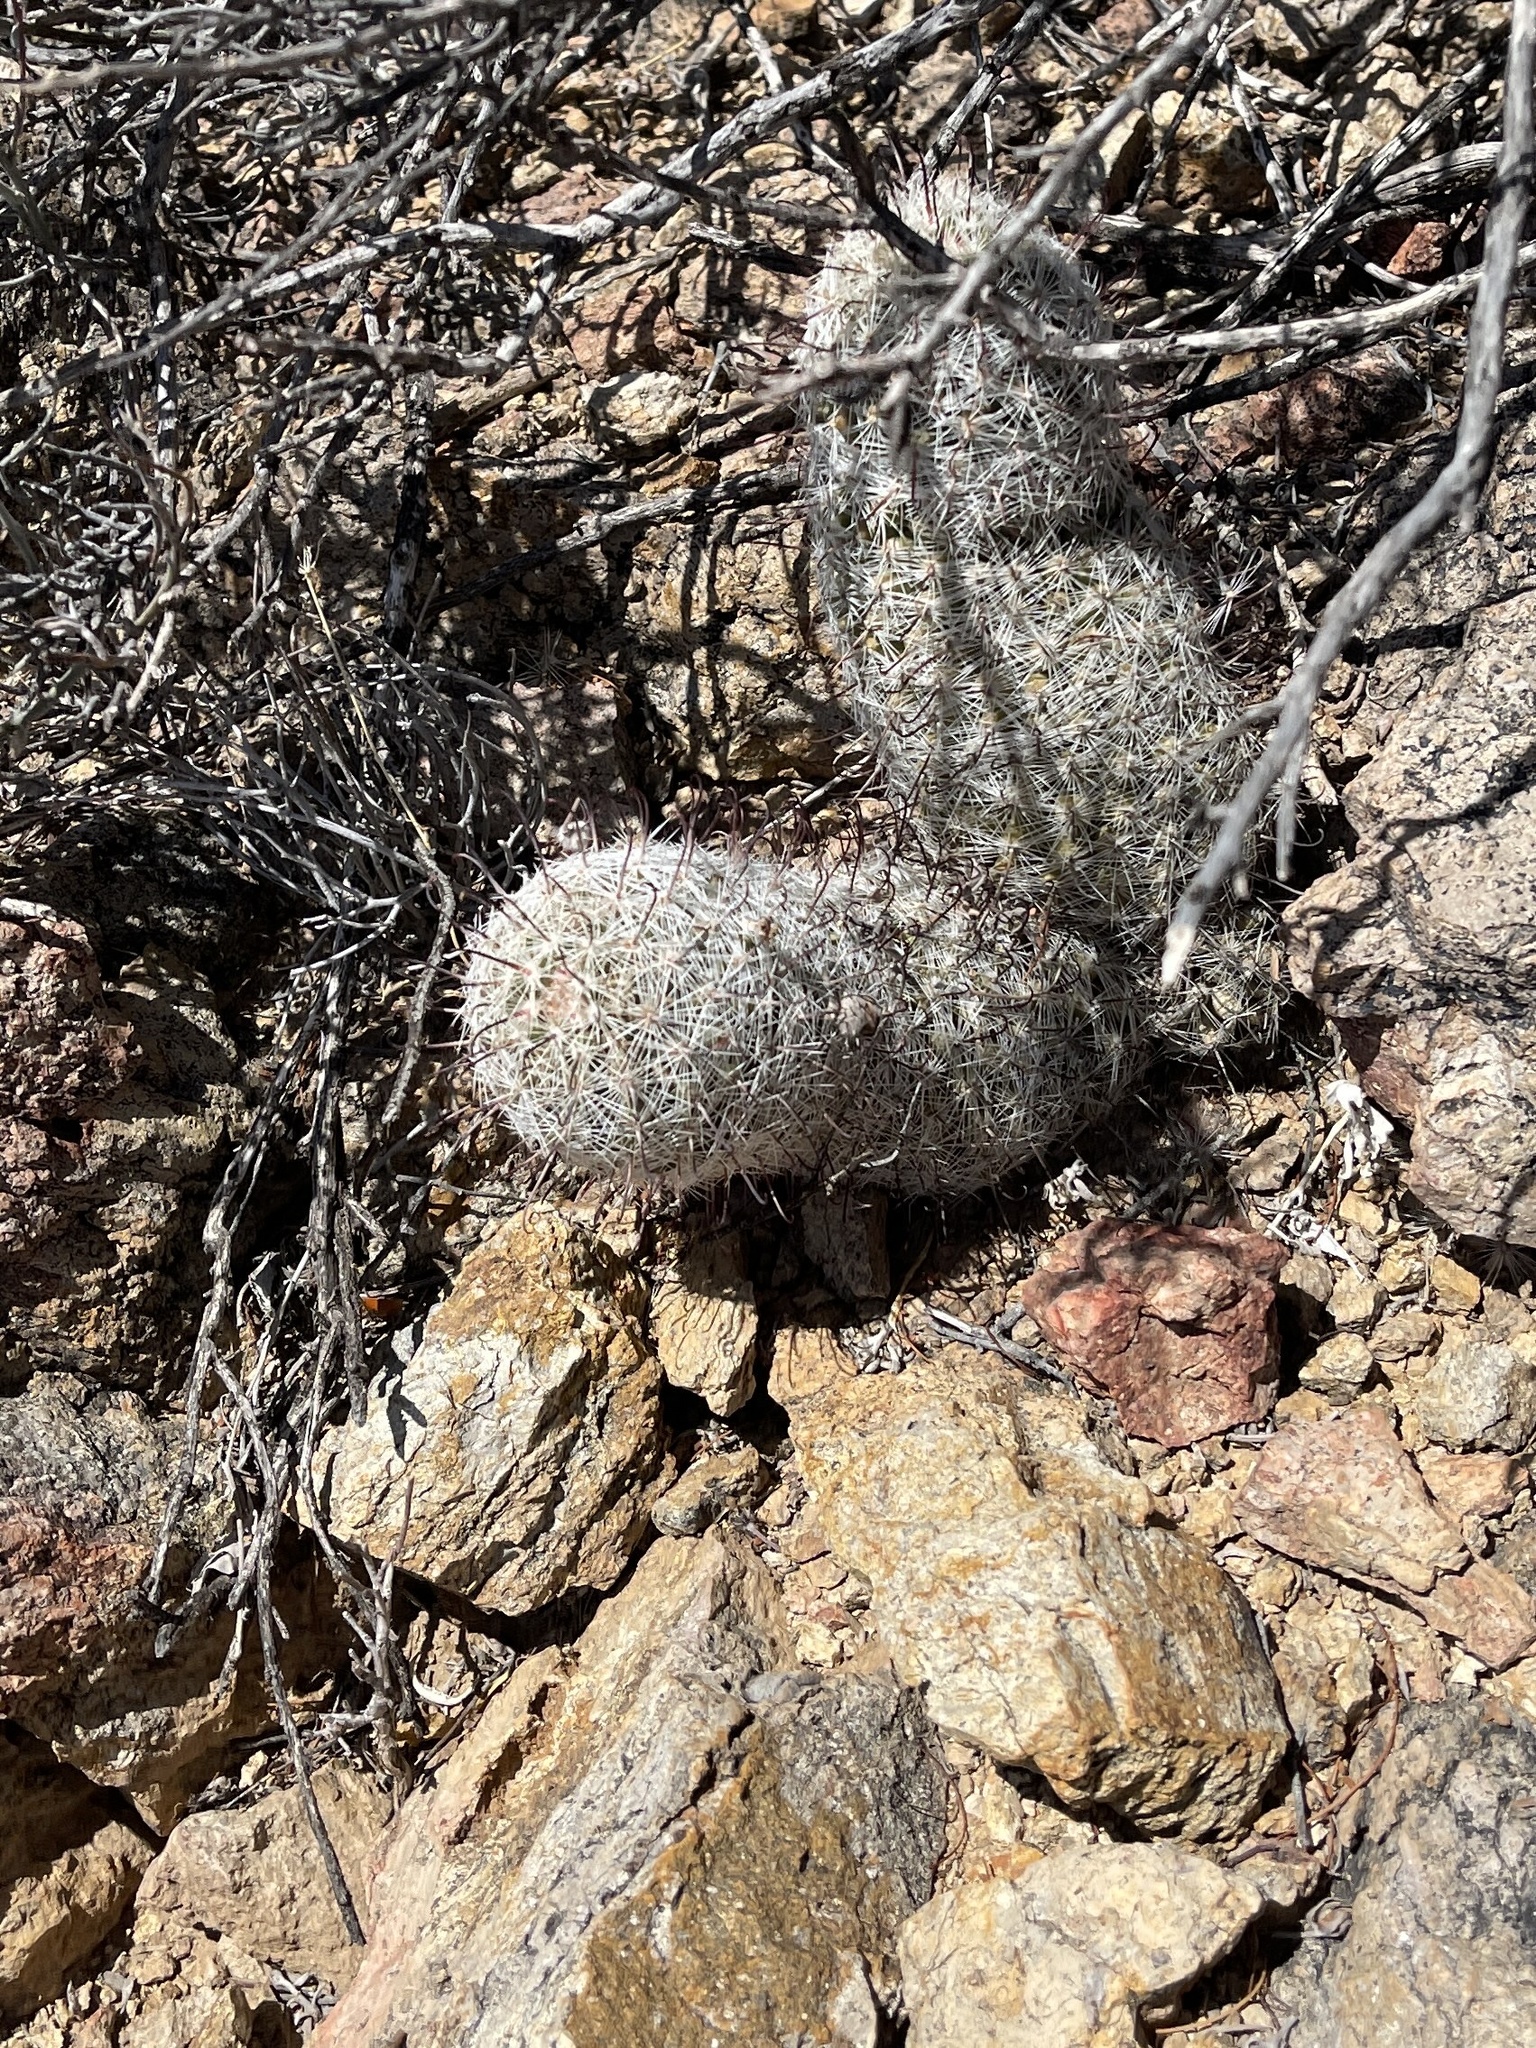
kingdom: Plantae
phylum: Tracheophyta
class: Magnoliopsida
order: Caryophyllales
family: Cactaceae
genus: Cochemiea
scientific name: Cochemiea grahamii
